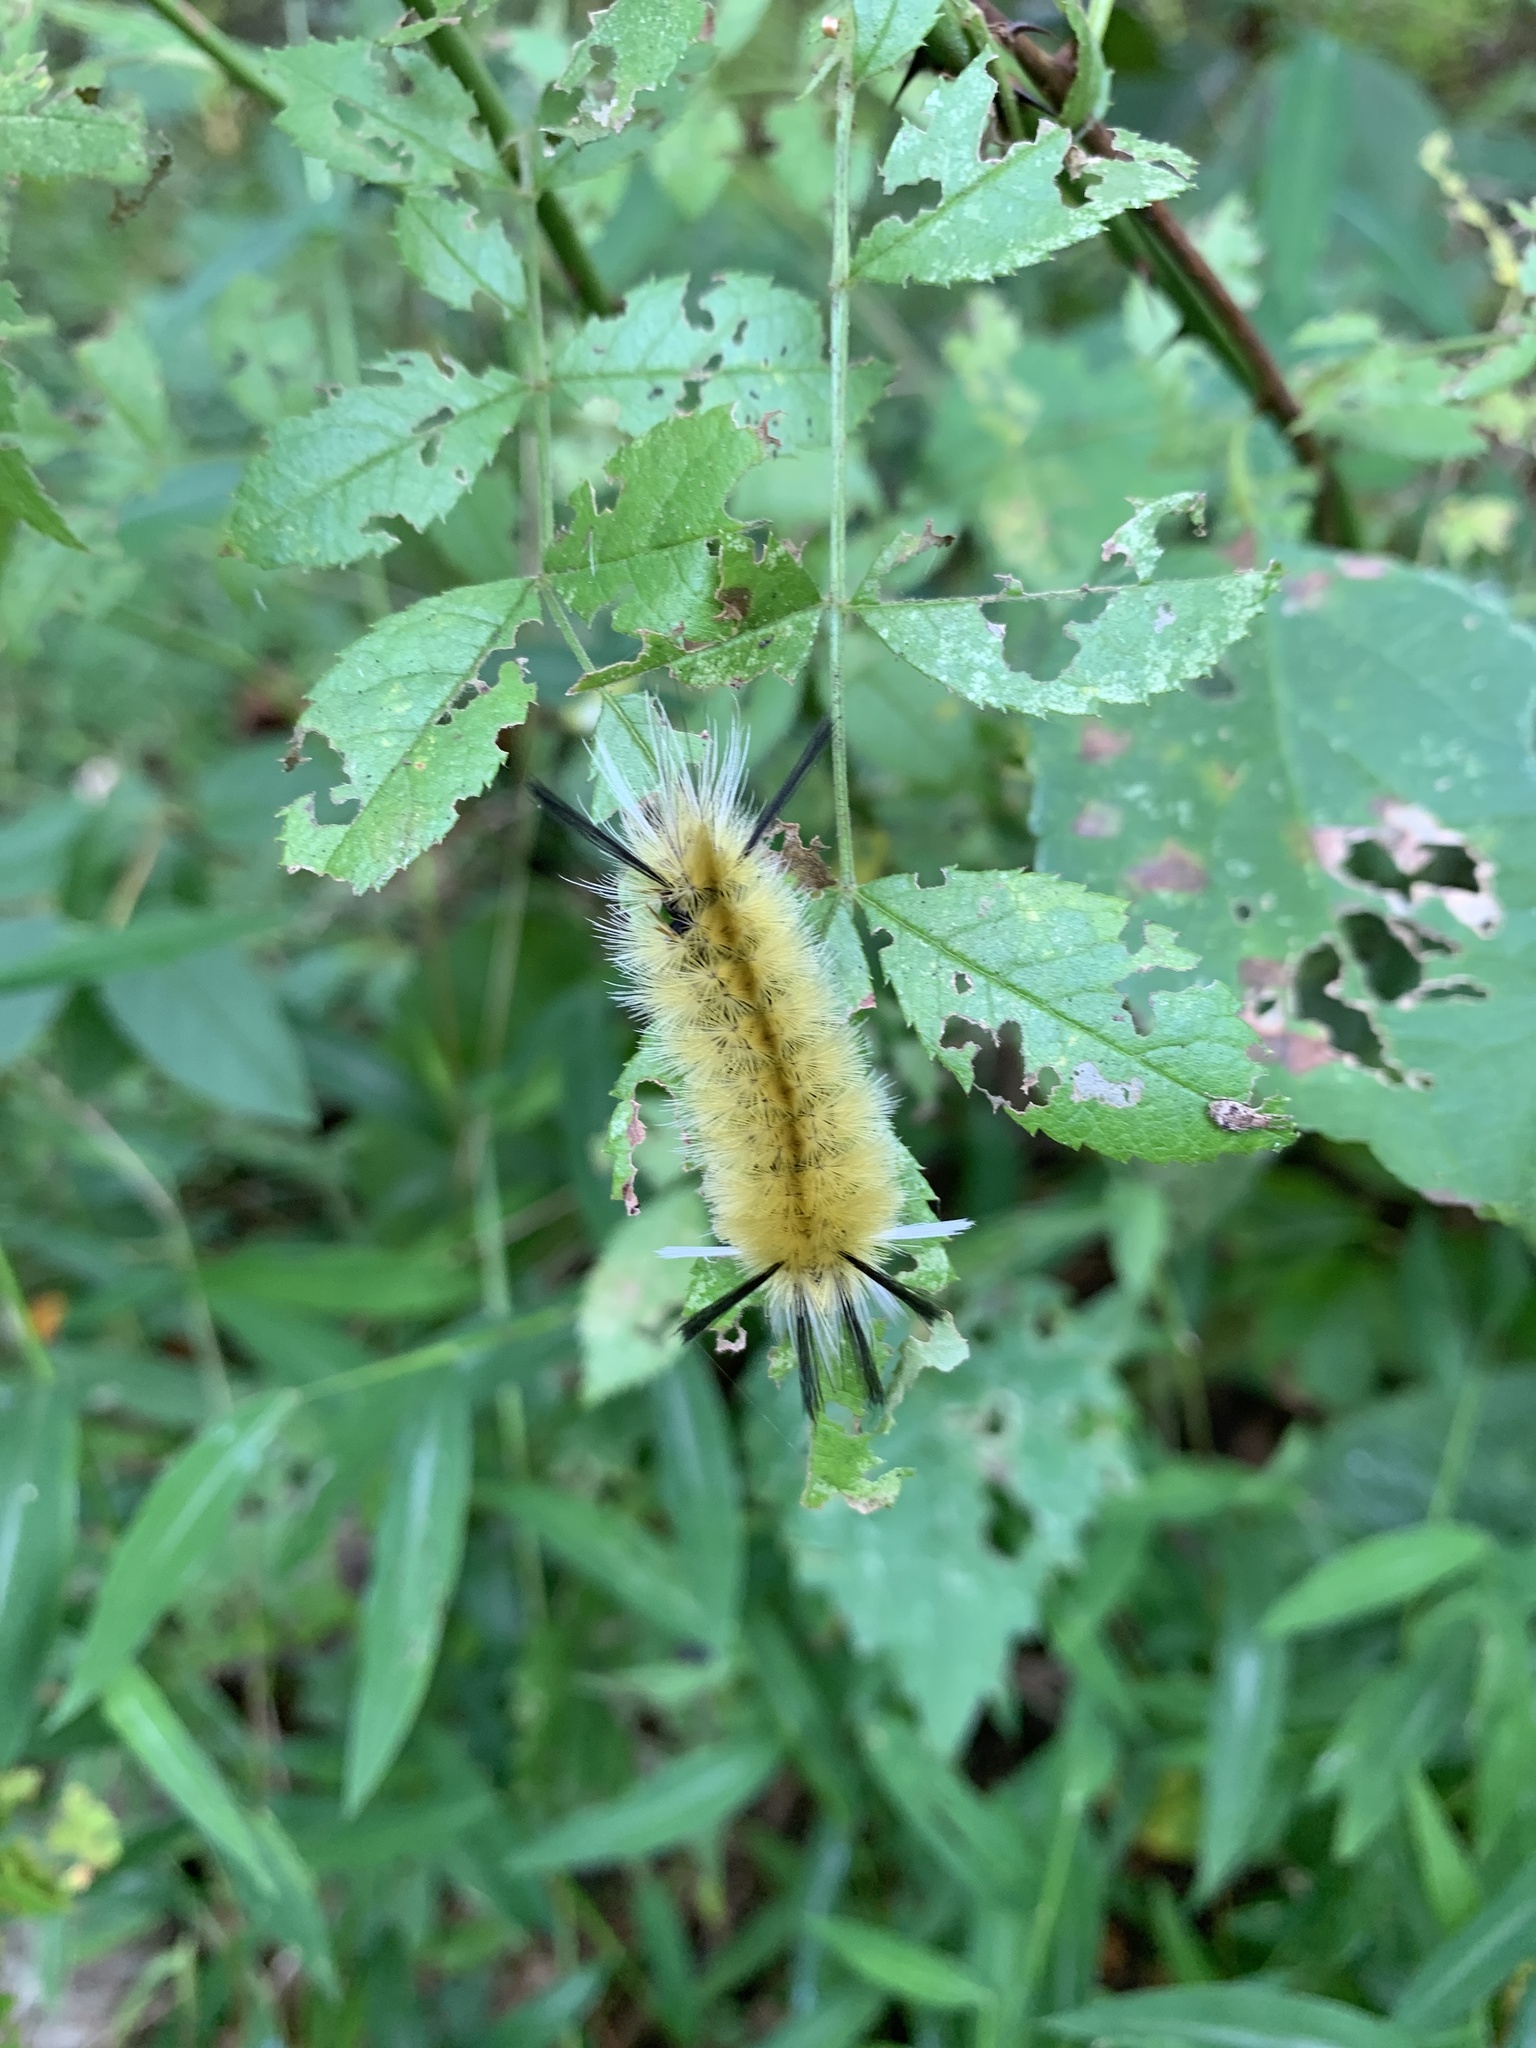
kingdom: Animalia
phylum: Arthropoda
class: Insecta
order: Lepidoptera
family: Erebidae
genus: Halysidota
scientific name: Halysidota tessellaris
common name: Banded tussock moth
